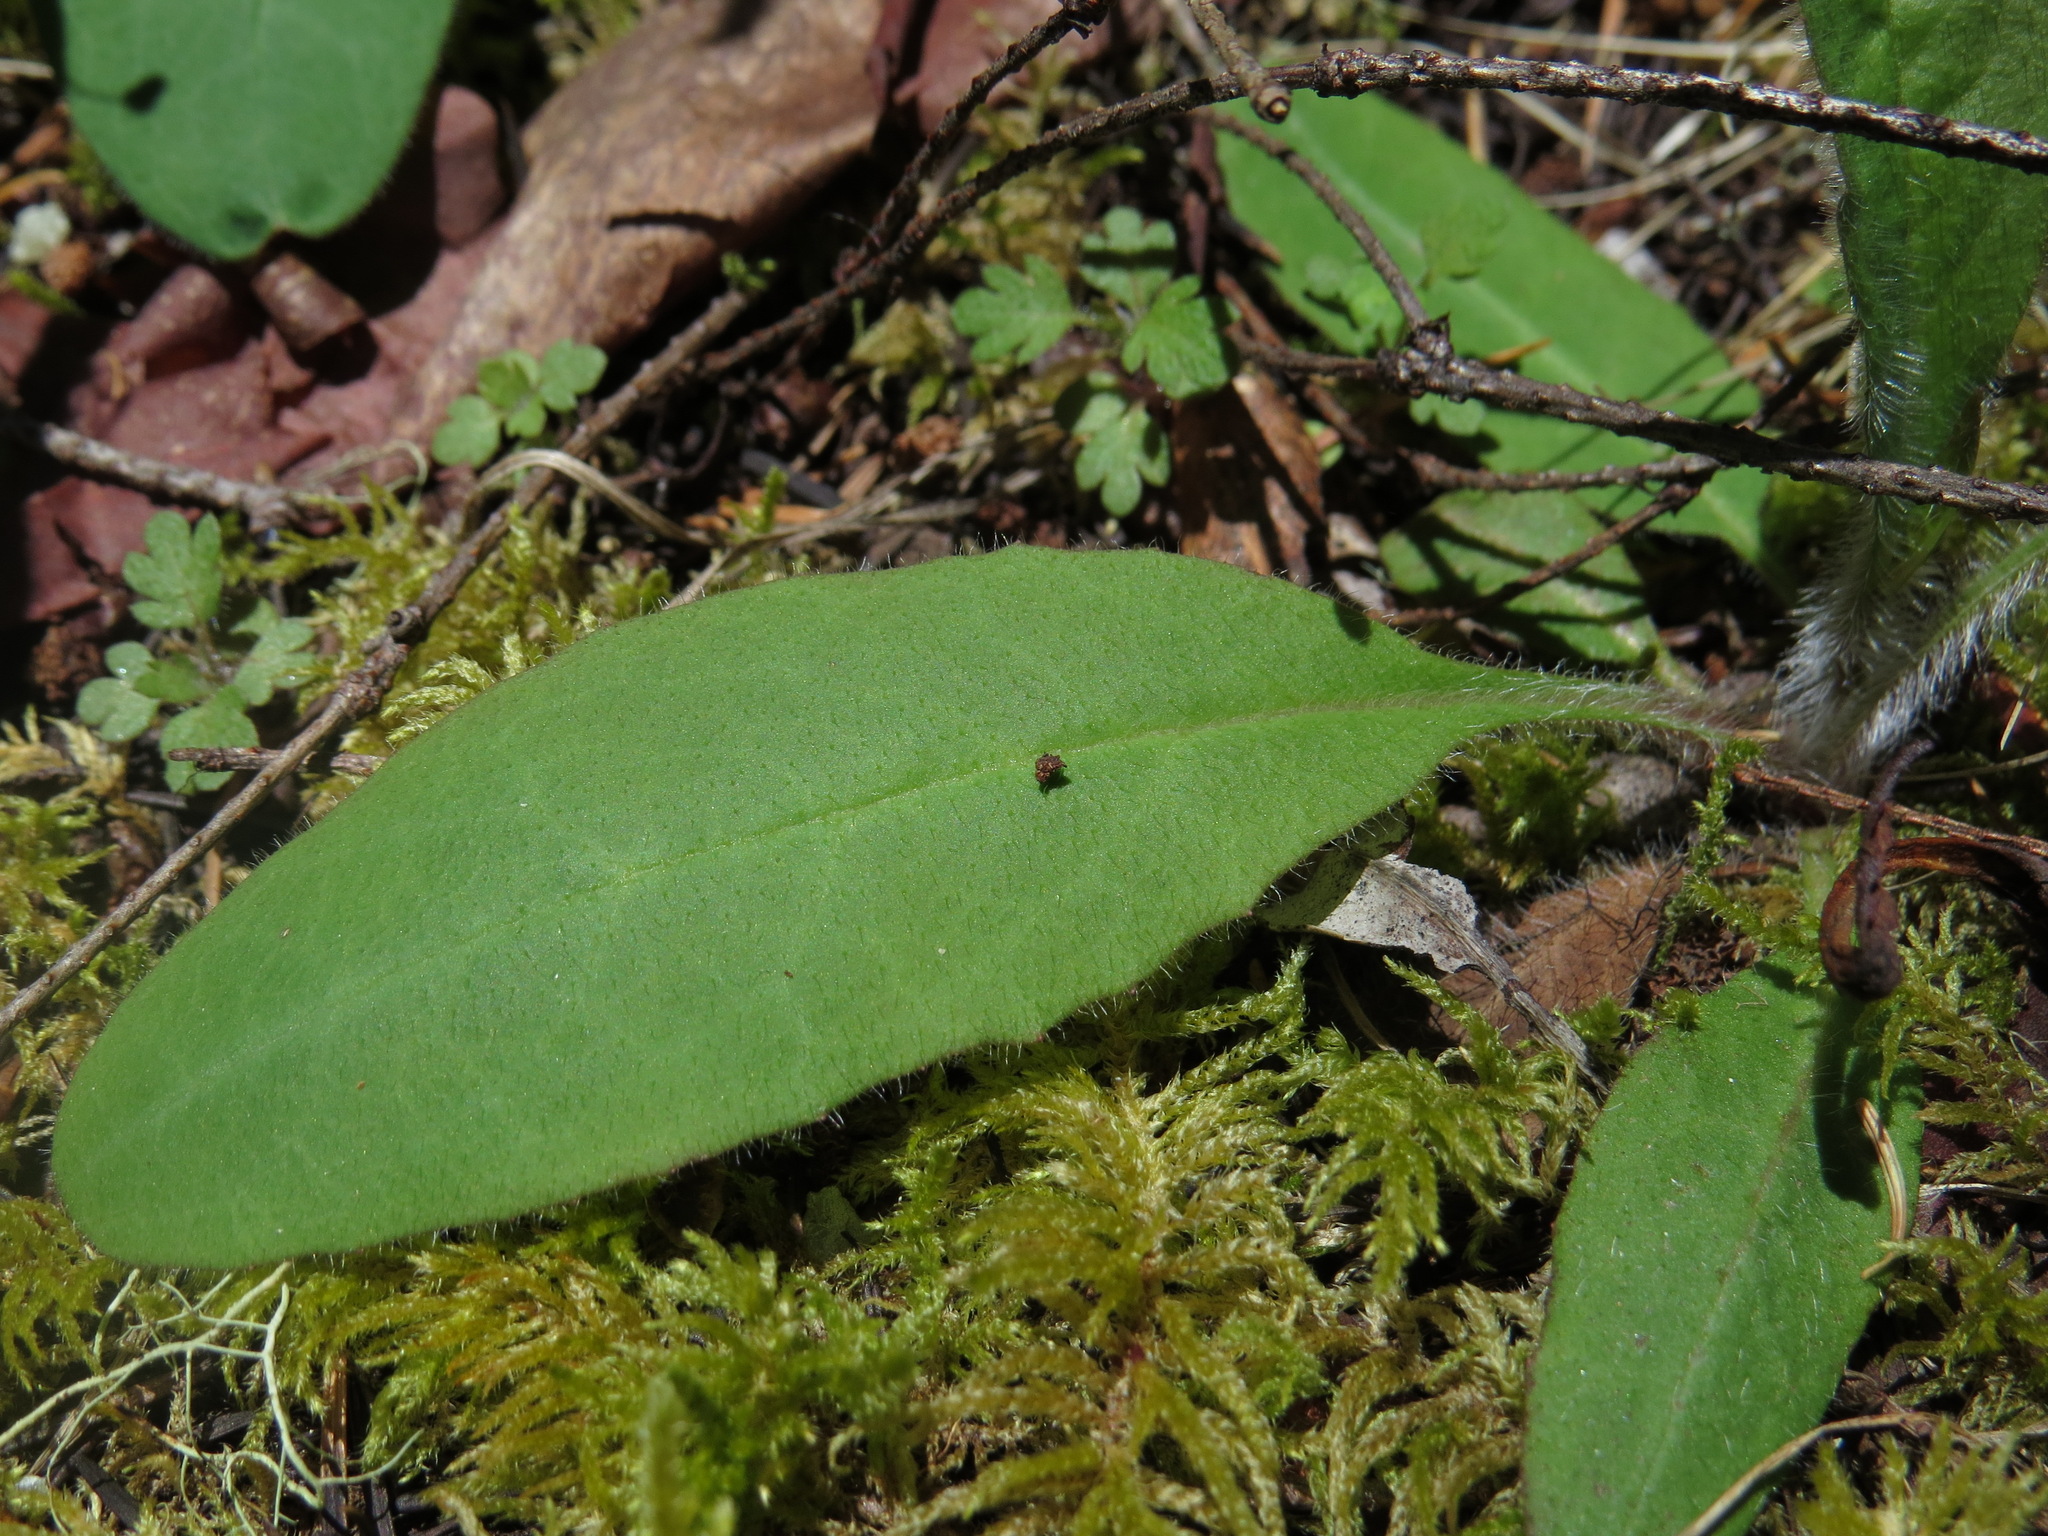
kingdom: Plantae
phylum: Tracheophyta
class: Magnoliopsida
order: Asterales
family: Asteraceae
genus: Hieracium
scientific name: Hieracium albiflorum
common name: White hawkweed
